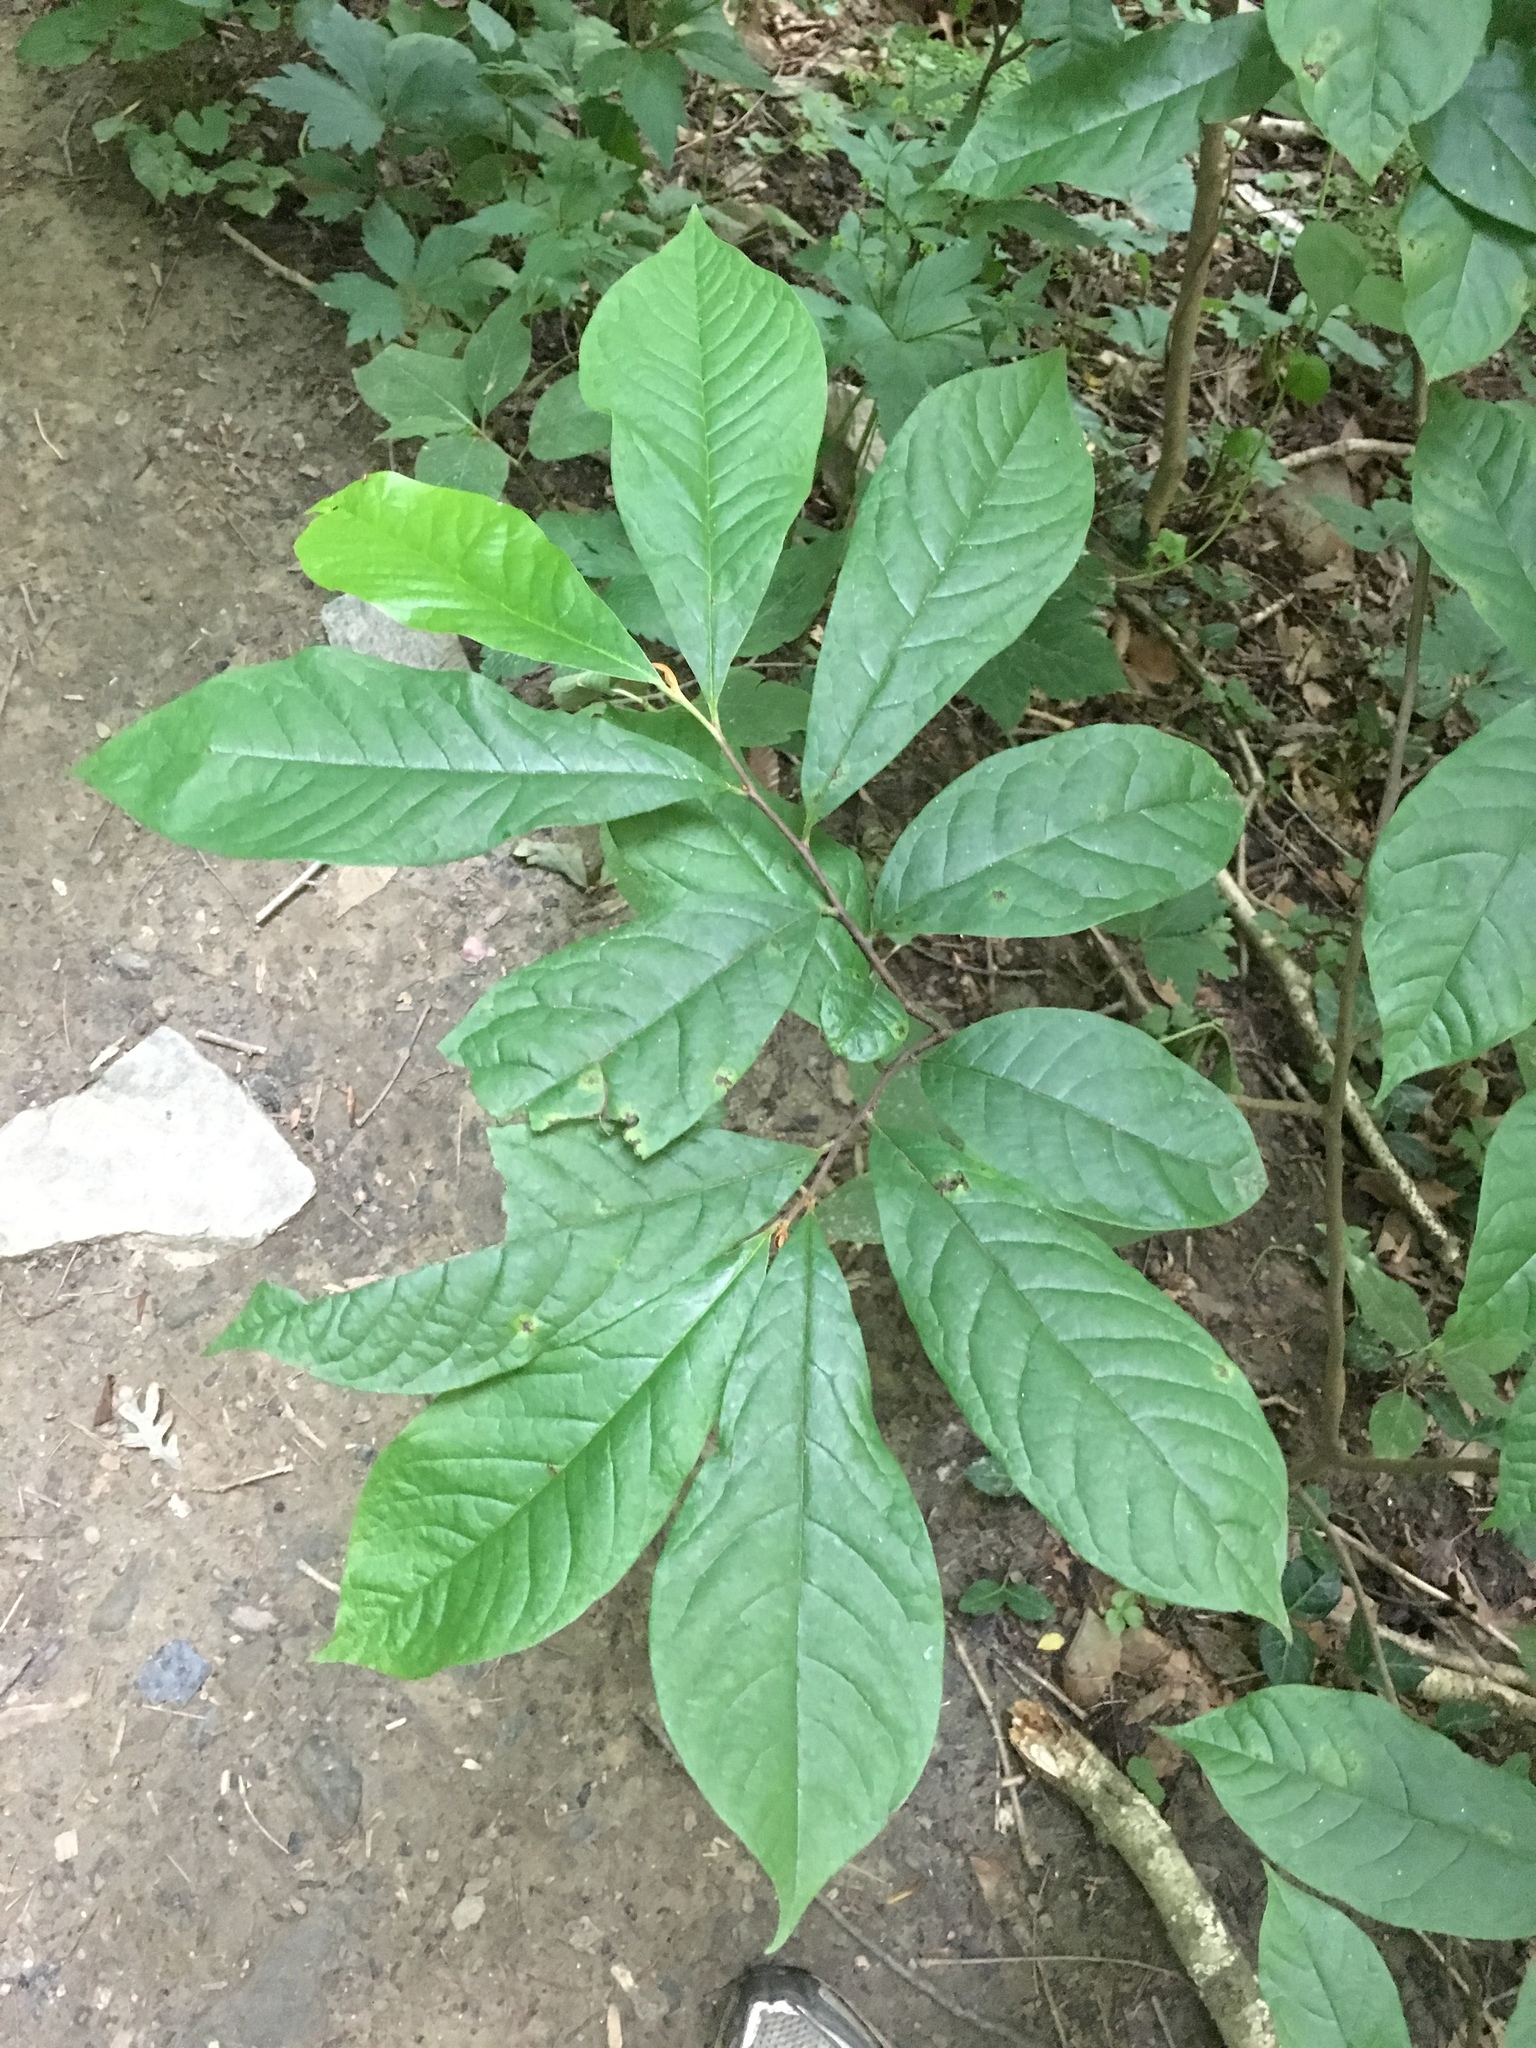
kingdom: Plantae
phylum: Tracheophyta
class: Magnoliopsida
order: Magnoliales
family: Annonaceae
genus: Asimina
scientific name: Asimina triloba
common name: Dog-banana
